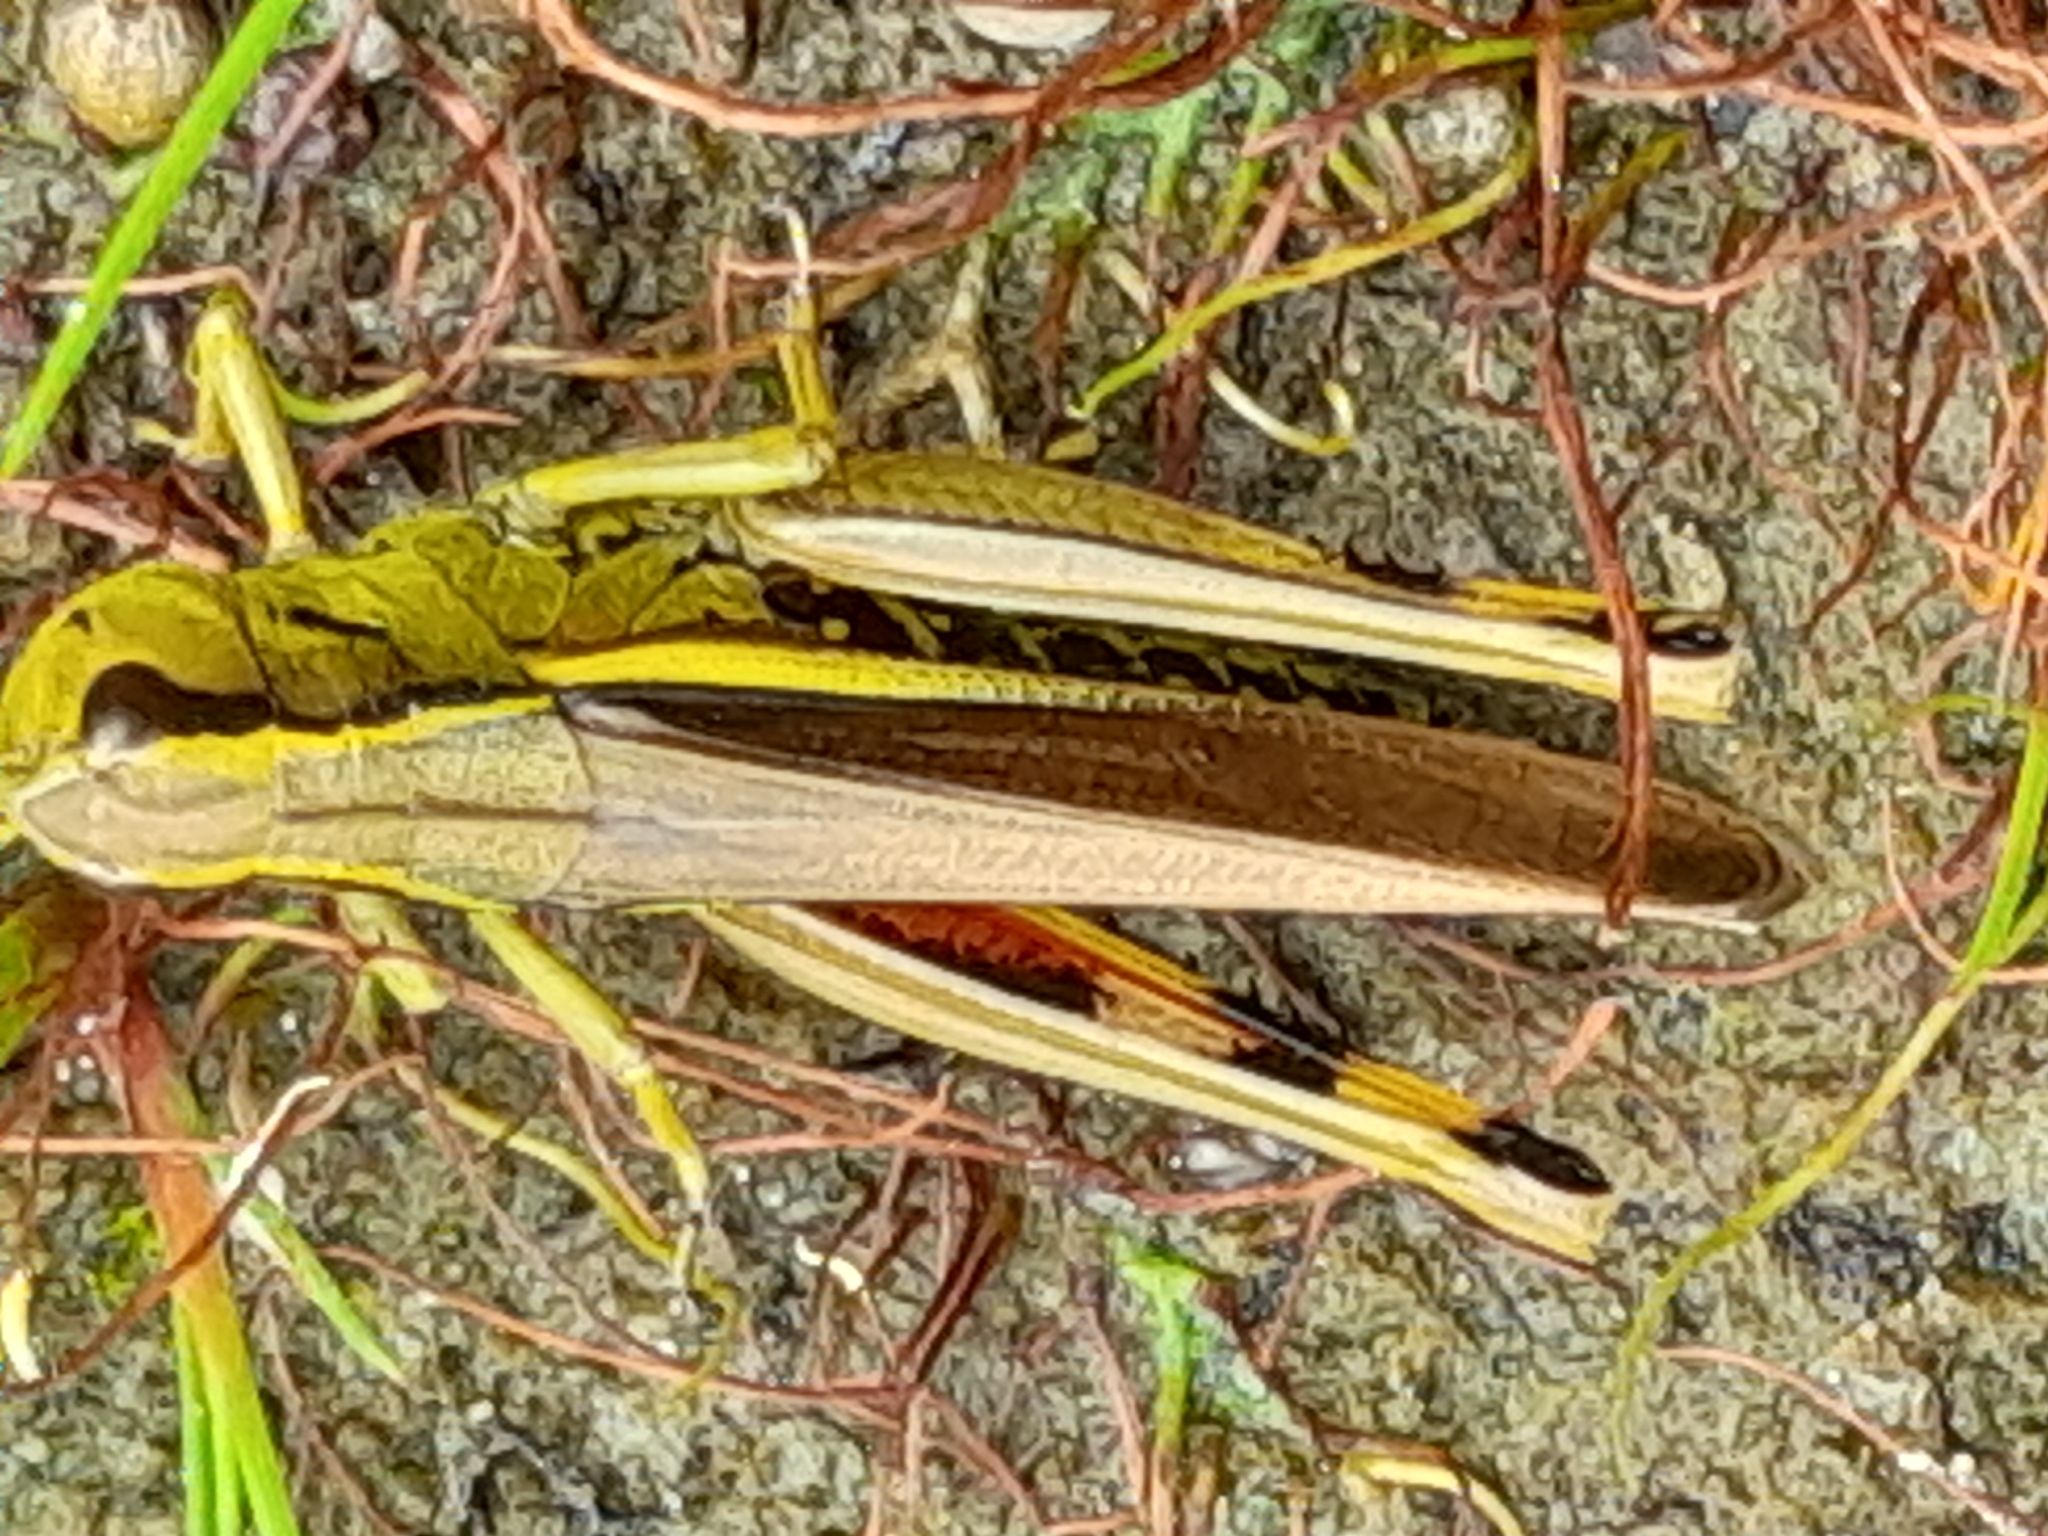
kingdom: Animalia
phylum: Arthropoda
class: Insecta
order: Orthoptera
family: Acrididae
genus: Stethophyma
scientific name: Stethophyma grossum
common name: Large marsh grasshopper
